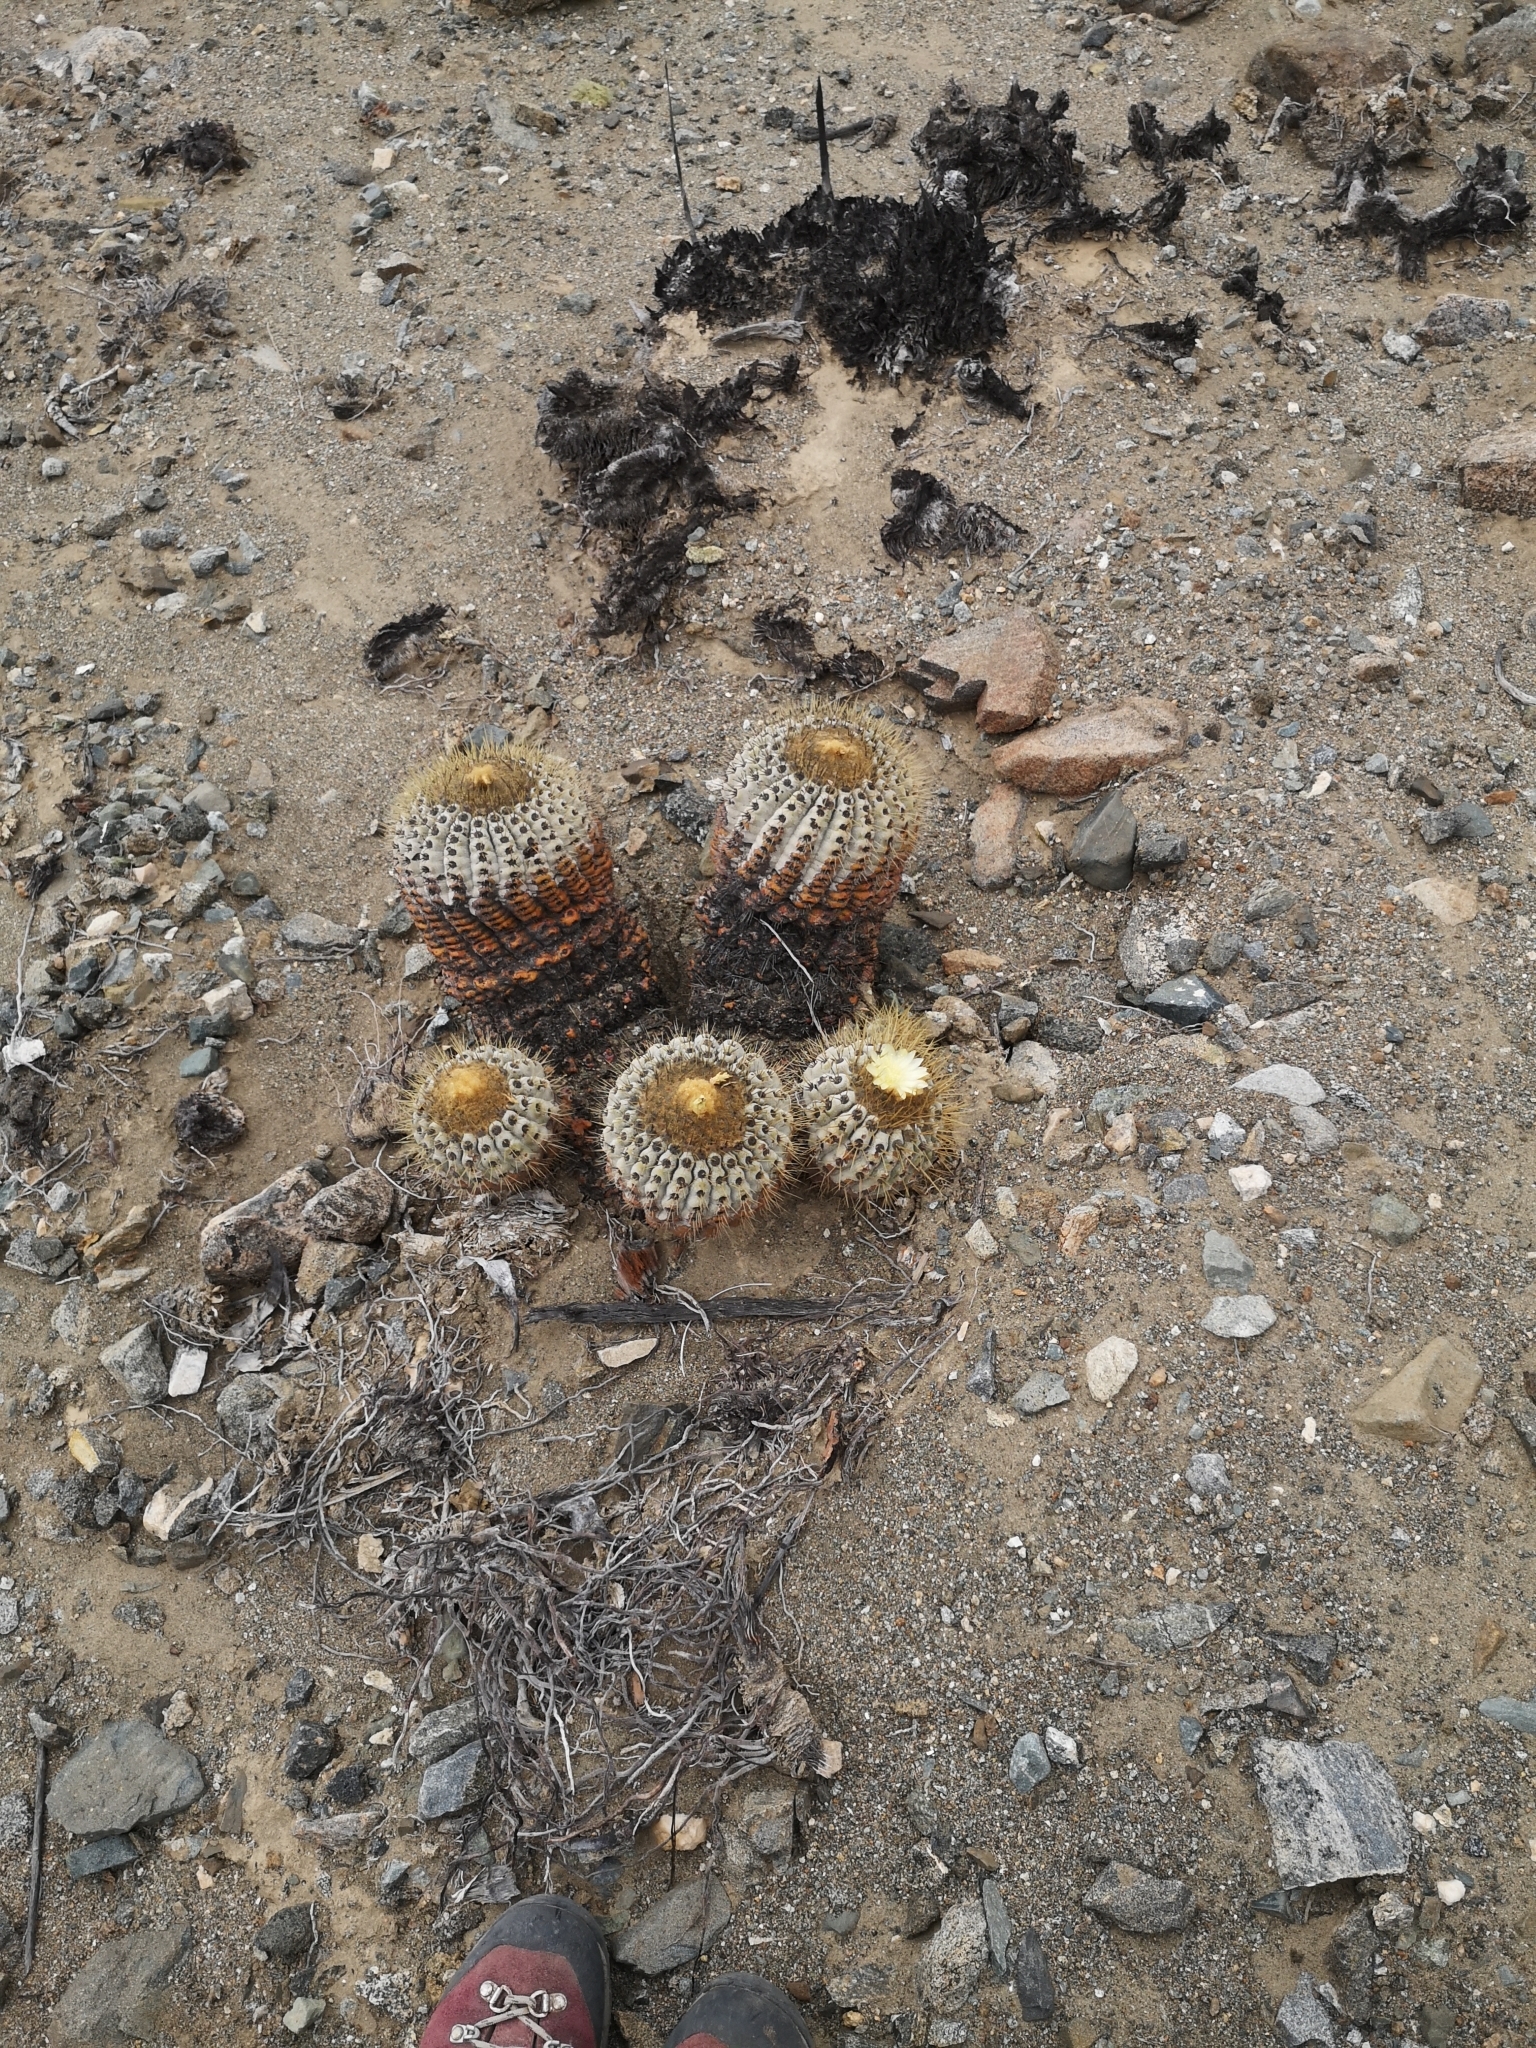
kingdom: Plantae
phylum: Tracheophyta
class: Magnoliopsida
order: Caryophyllales
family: Cactaceae
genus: Copiapoa
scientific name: Copiapoa gigantea
